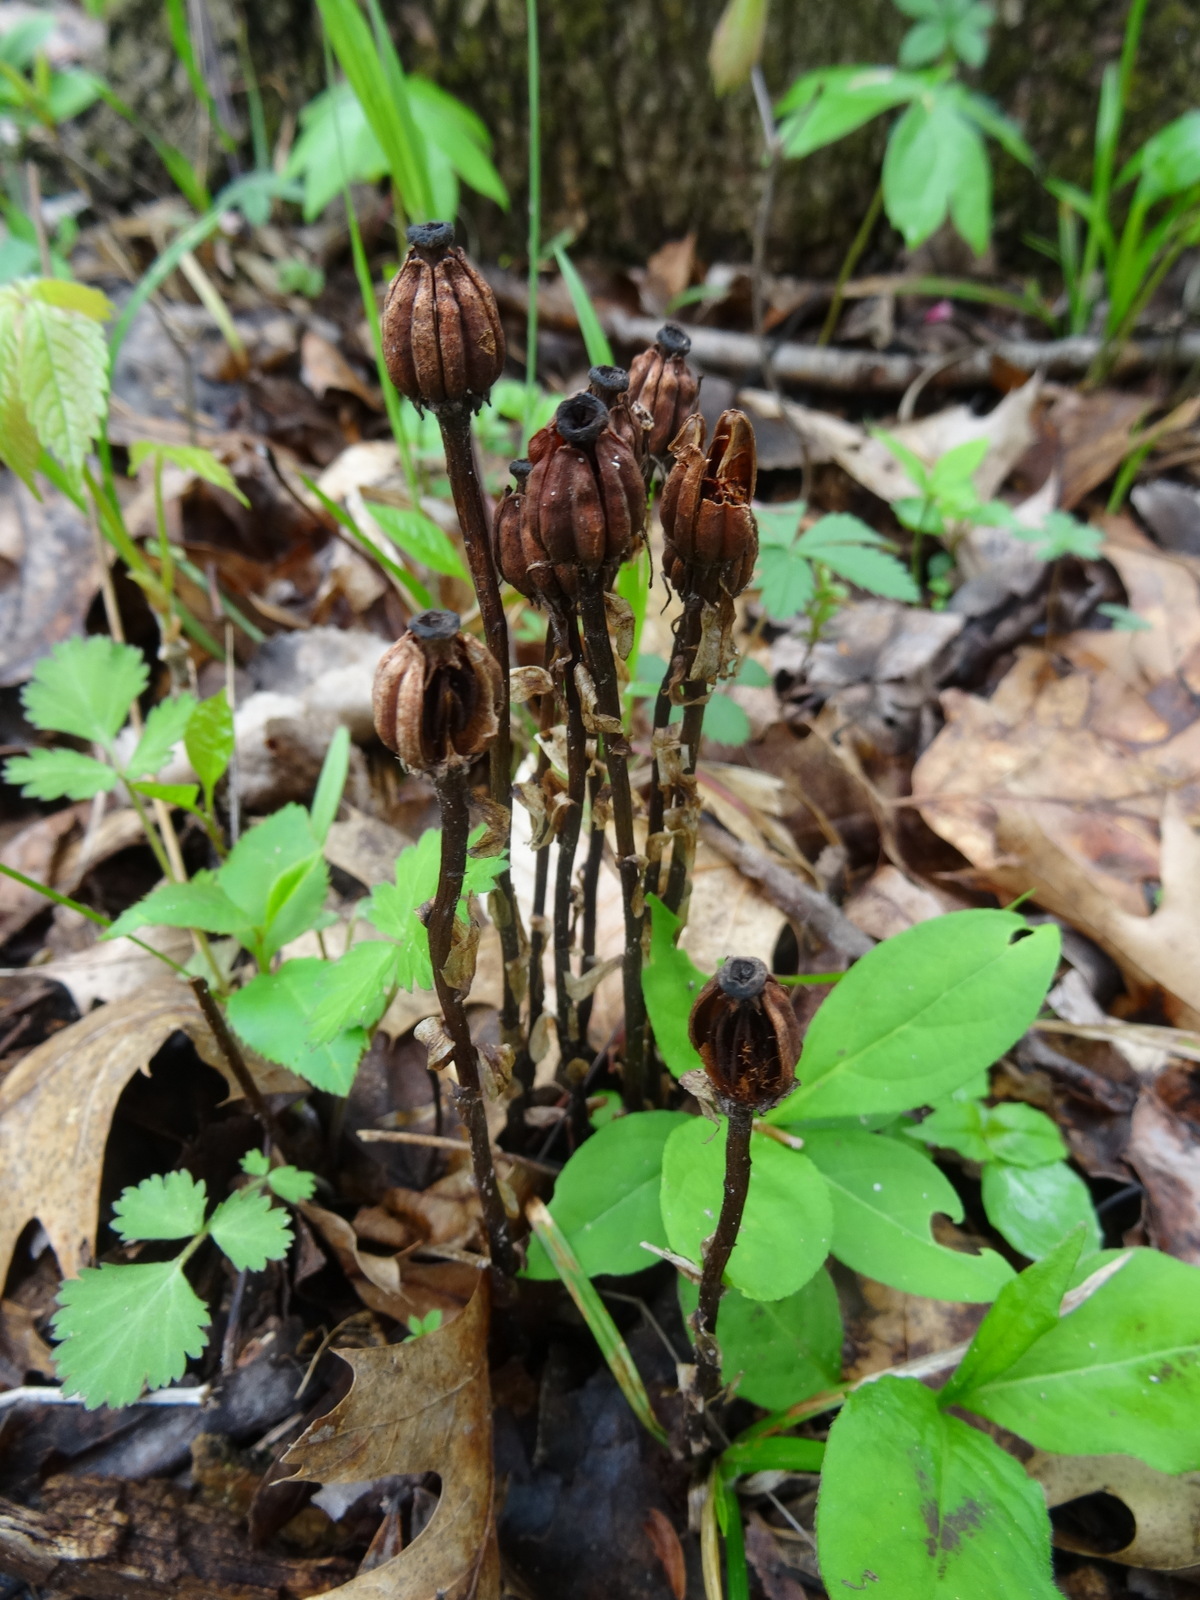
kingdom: Plantae
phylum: Tracheophyta
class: Magnoliopsida
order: Ericales
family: Ericaceae
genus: Monotropa
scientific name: Monotropa uniflora
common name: Convulsion root
